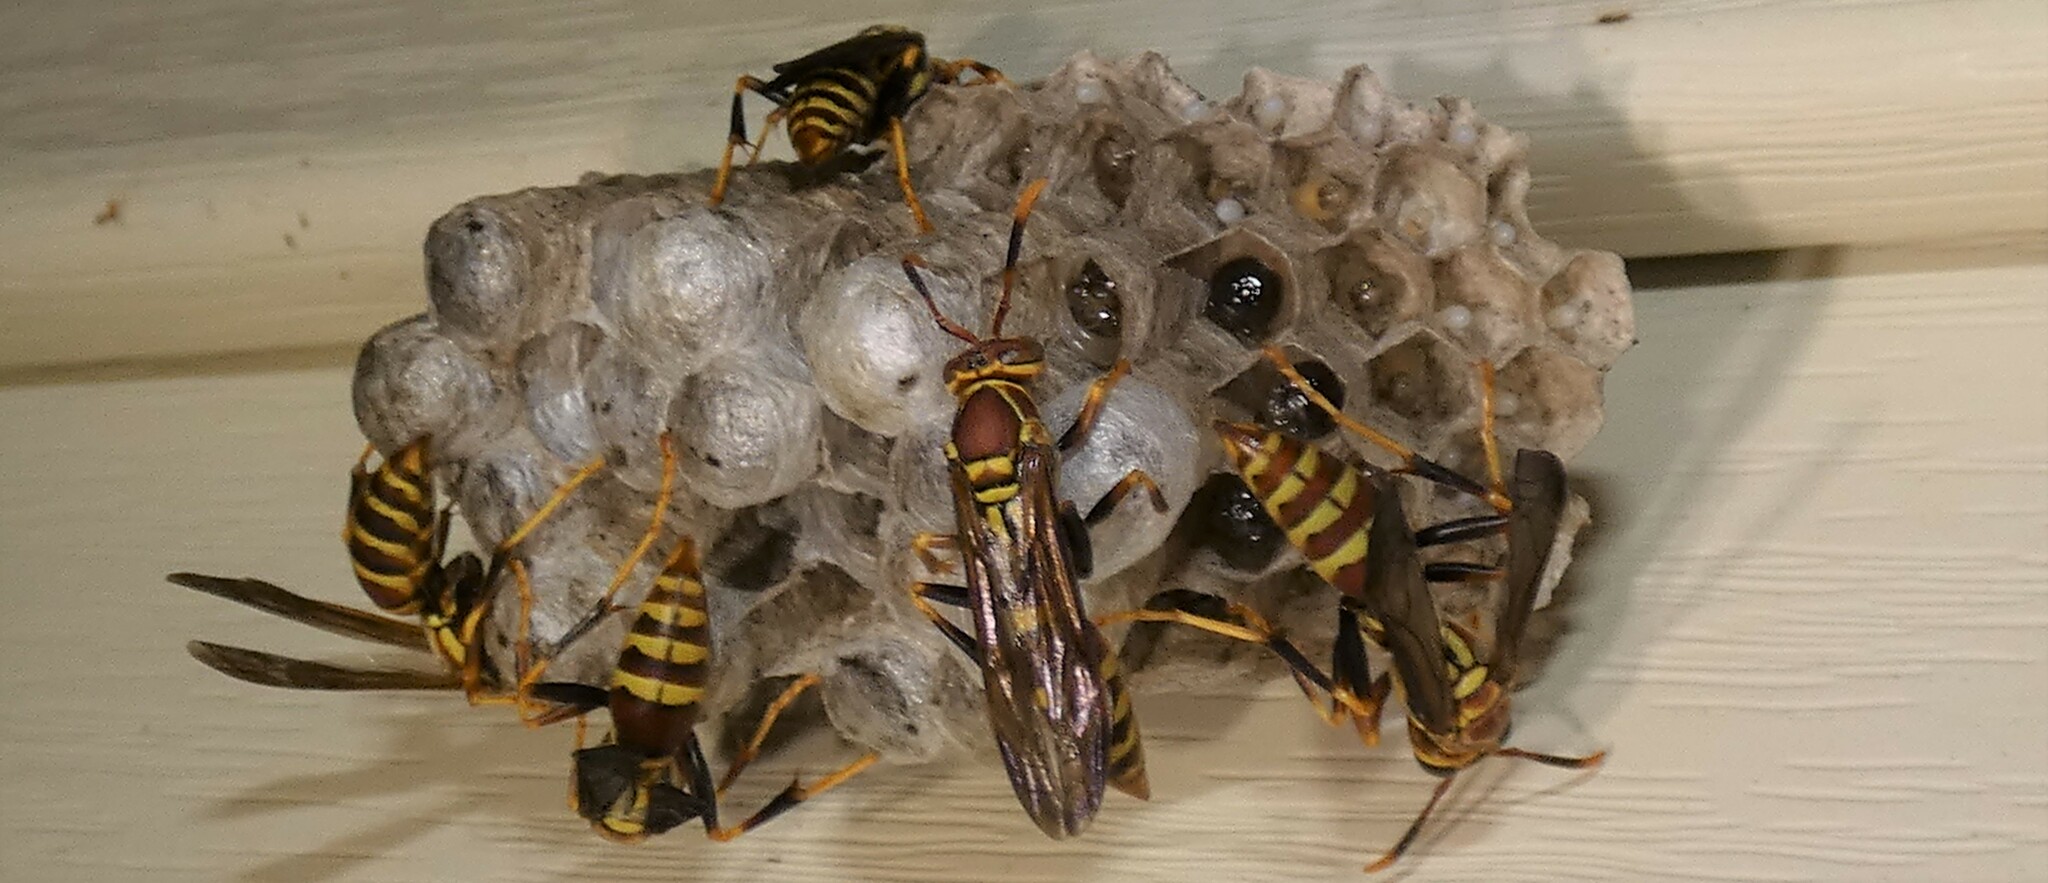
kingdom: Animalia
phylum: Arthropoda
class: Insecta
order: Hymenoptera
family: Eumenidae
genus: Polistes
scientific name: Polistes exclamans
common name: Paper wasp
